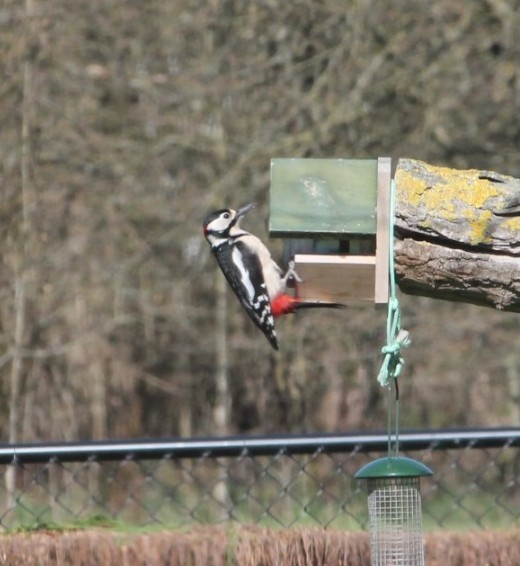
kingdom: Animalia
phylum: Chordata
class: Aves
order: Piciformes
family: Picidae
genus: Dendrocopos
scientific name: Dendrocopos major
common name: Great spotted woodpecker
